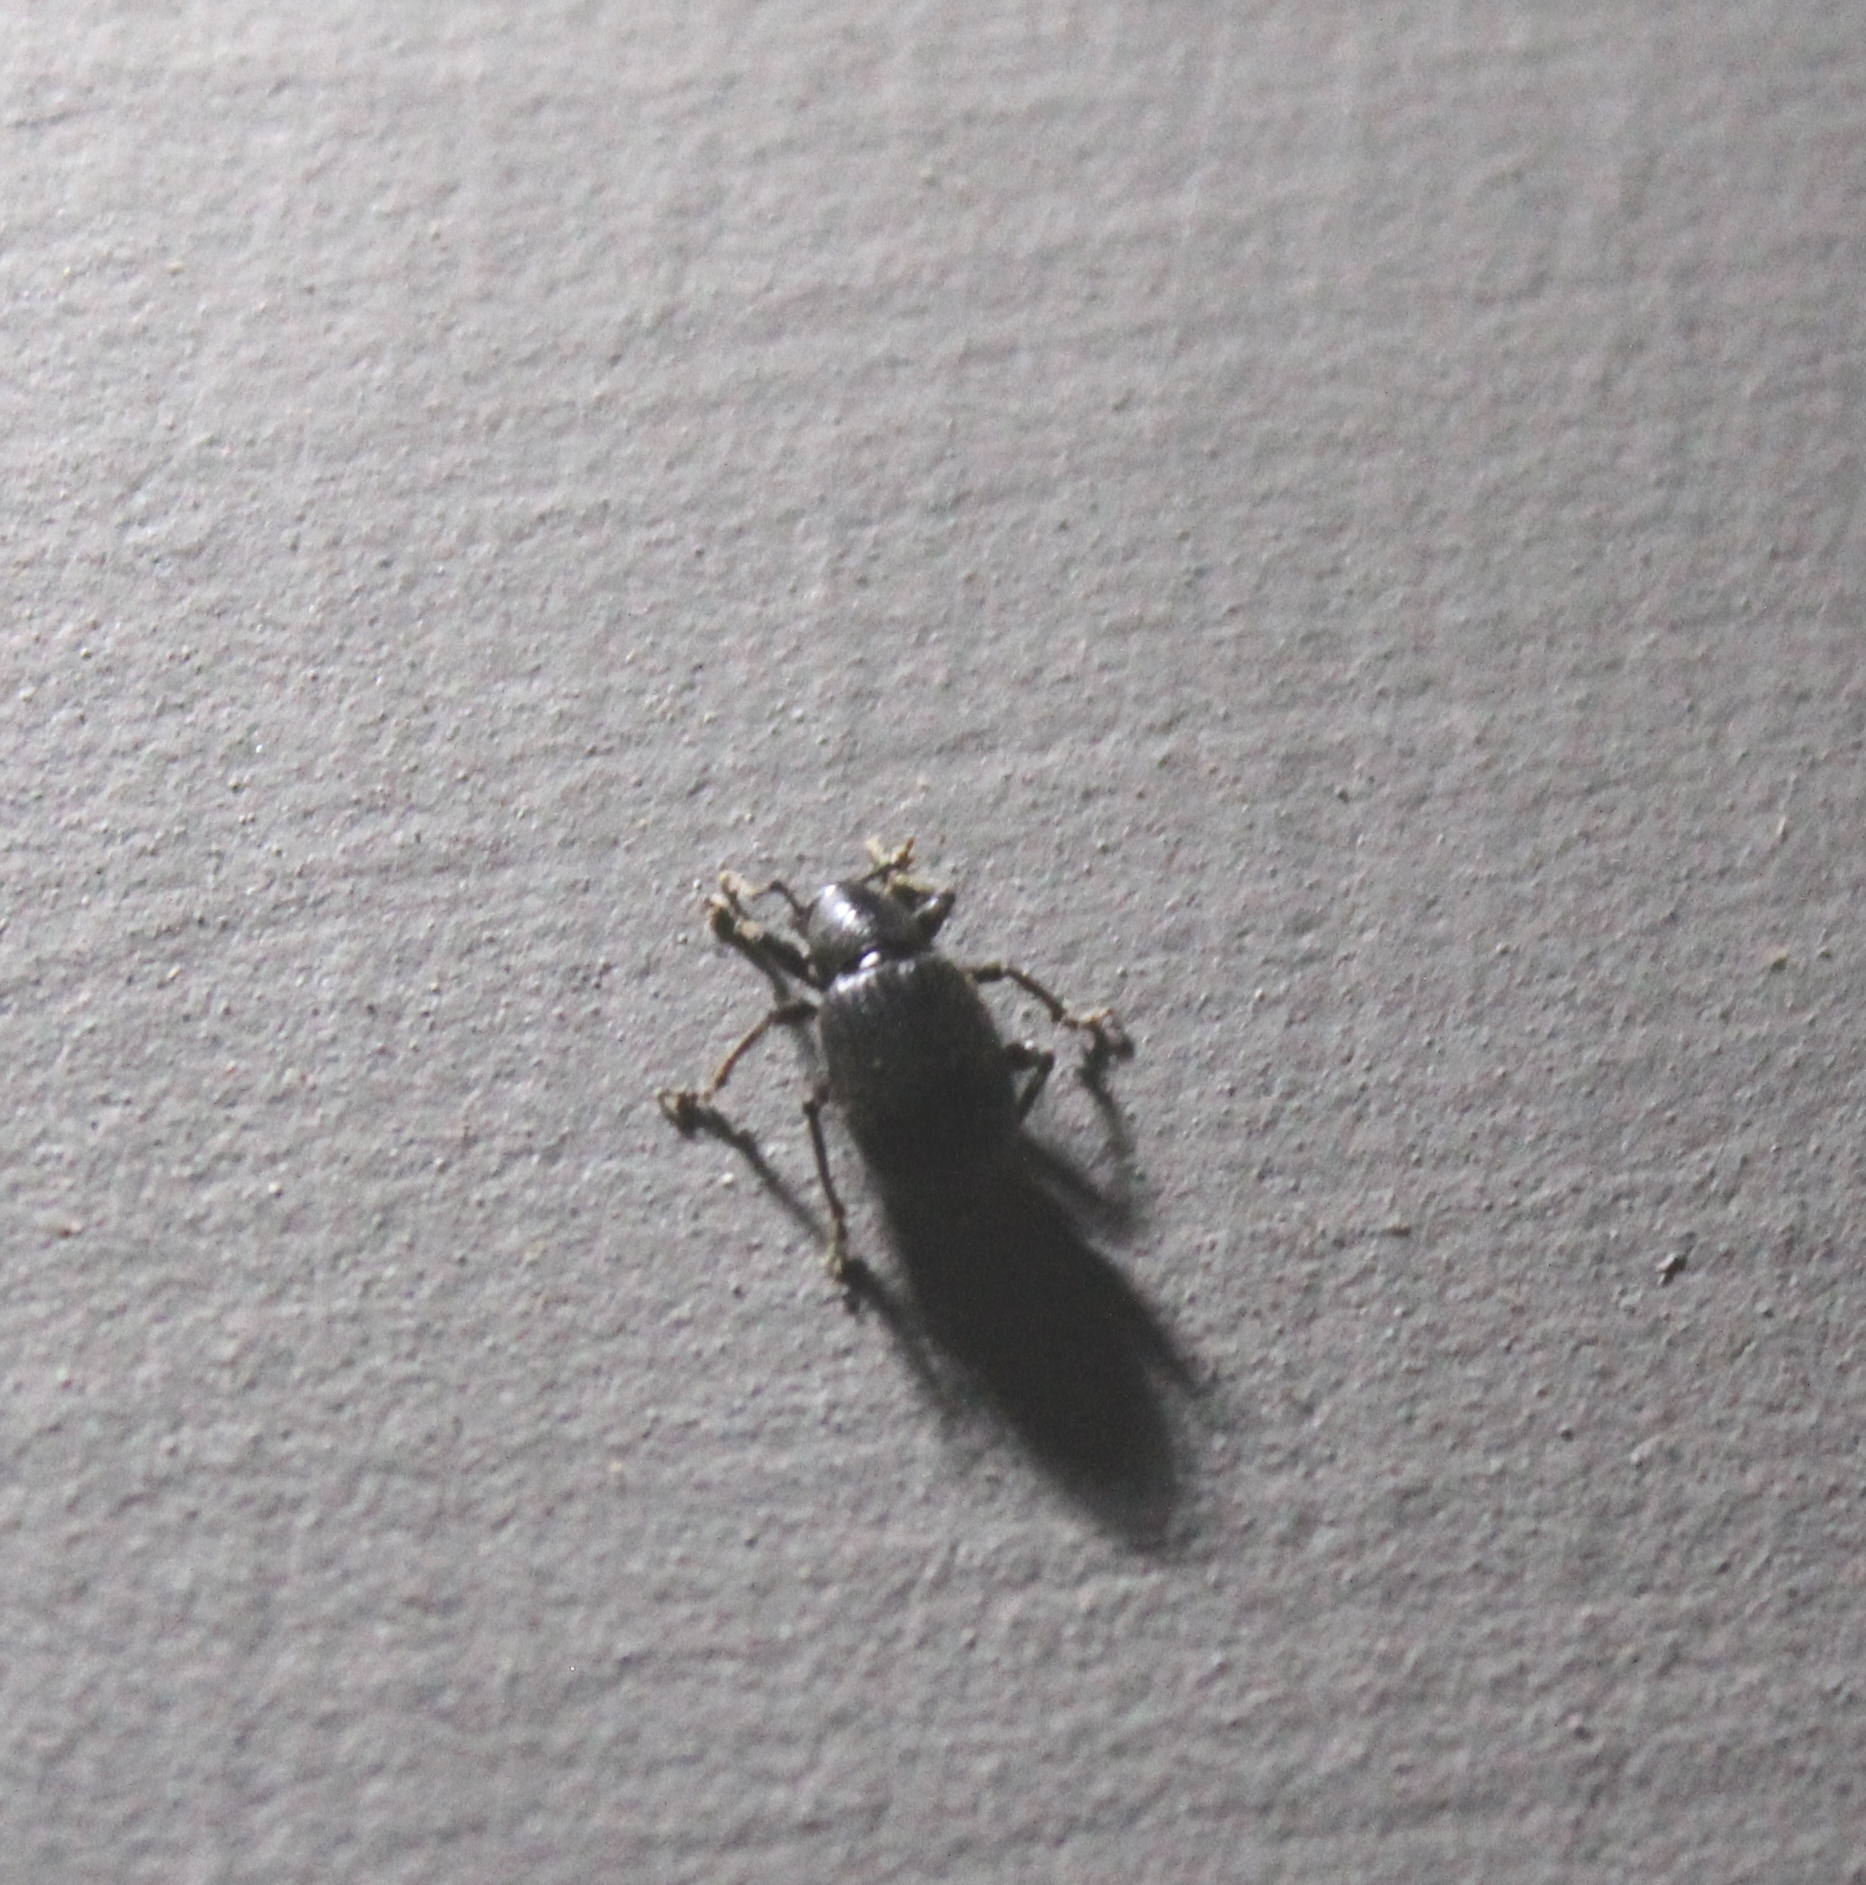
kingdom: Animalia
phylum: Arthropoda
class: Insecta
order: Coleoptera
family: Curculionidae
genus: Otiorhynchus
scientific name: Otiorhynchus meridionalis
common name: Weevil
